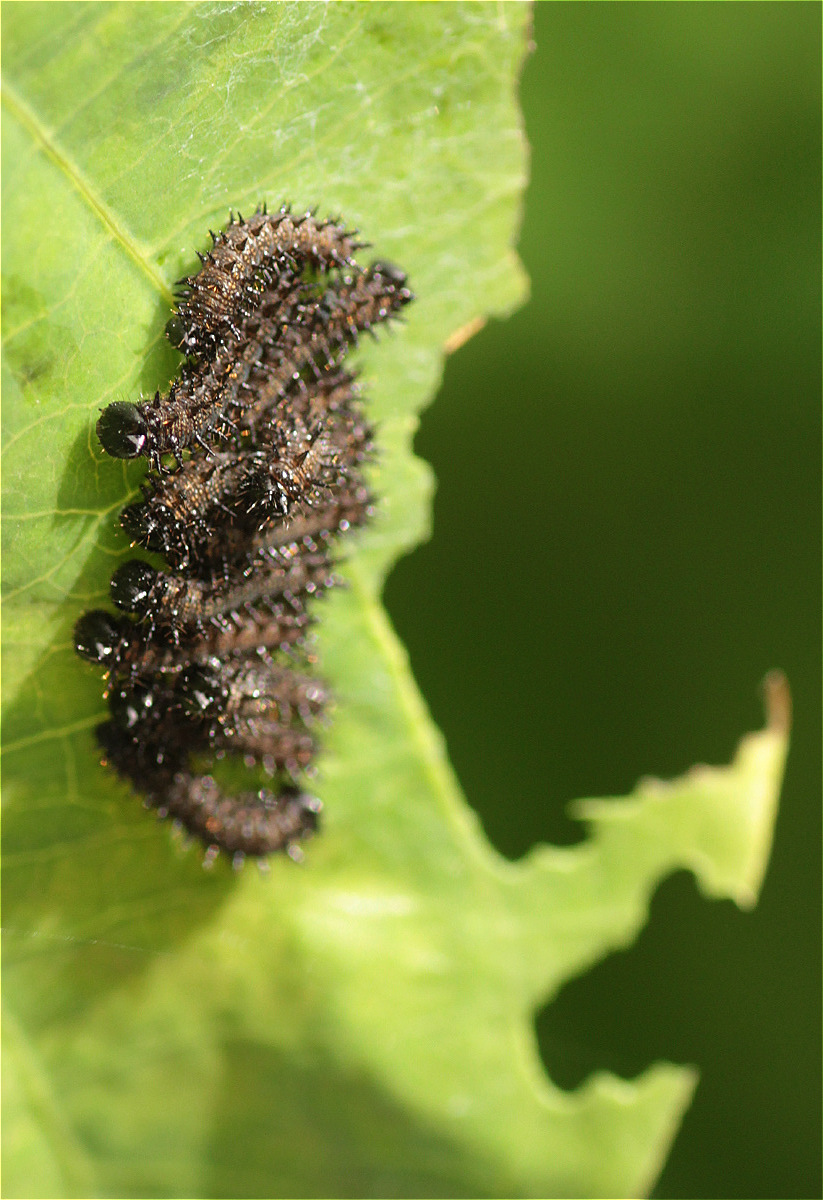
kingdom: Animalia
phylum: Arthropoda
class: Insecta
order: Lepidoptera
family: Nymphalidae
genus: Dione
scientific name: Dione juno
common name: Juno silverspot
